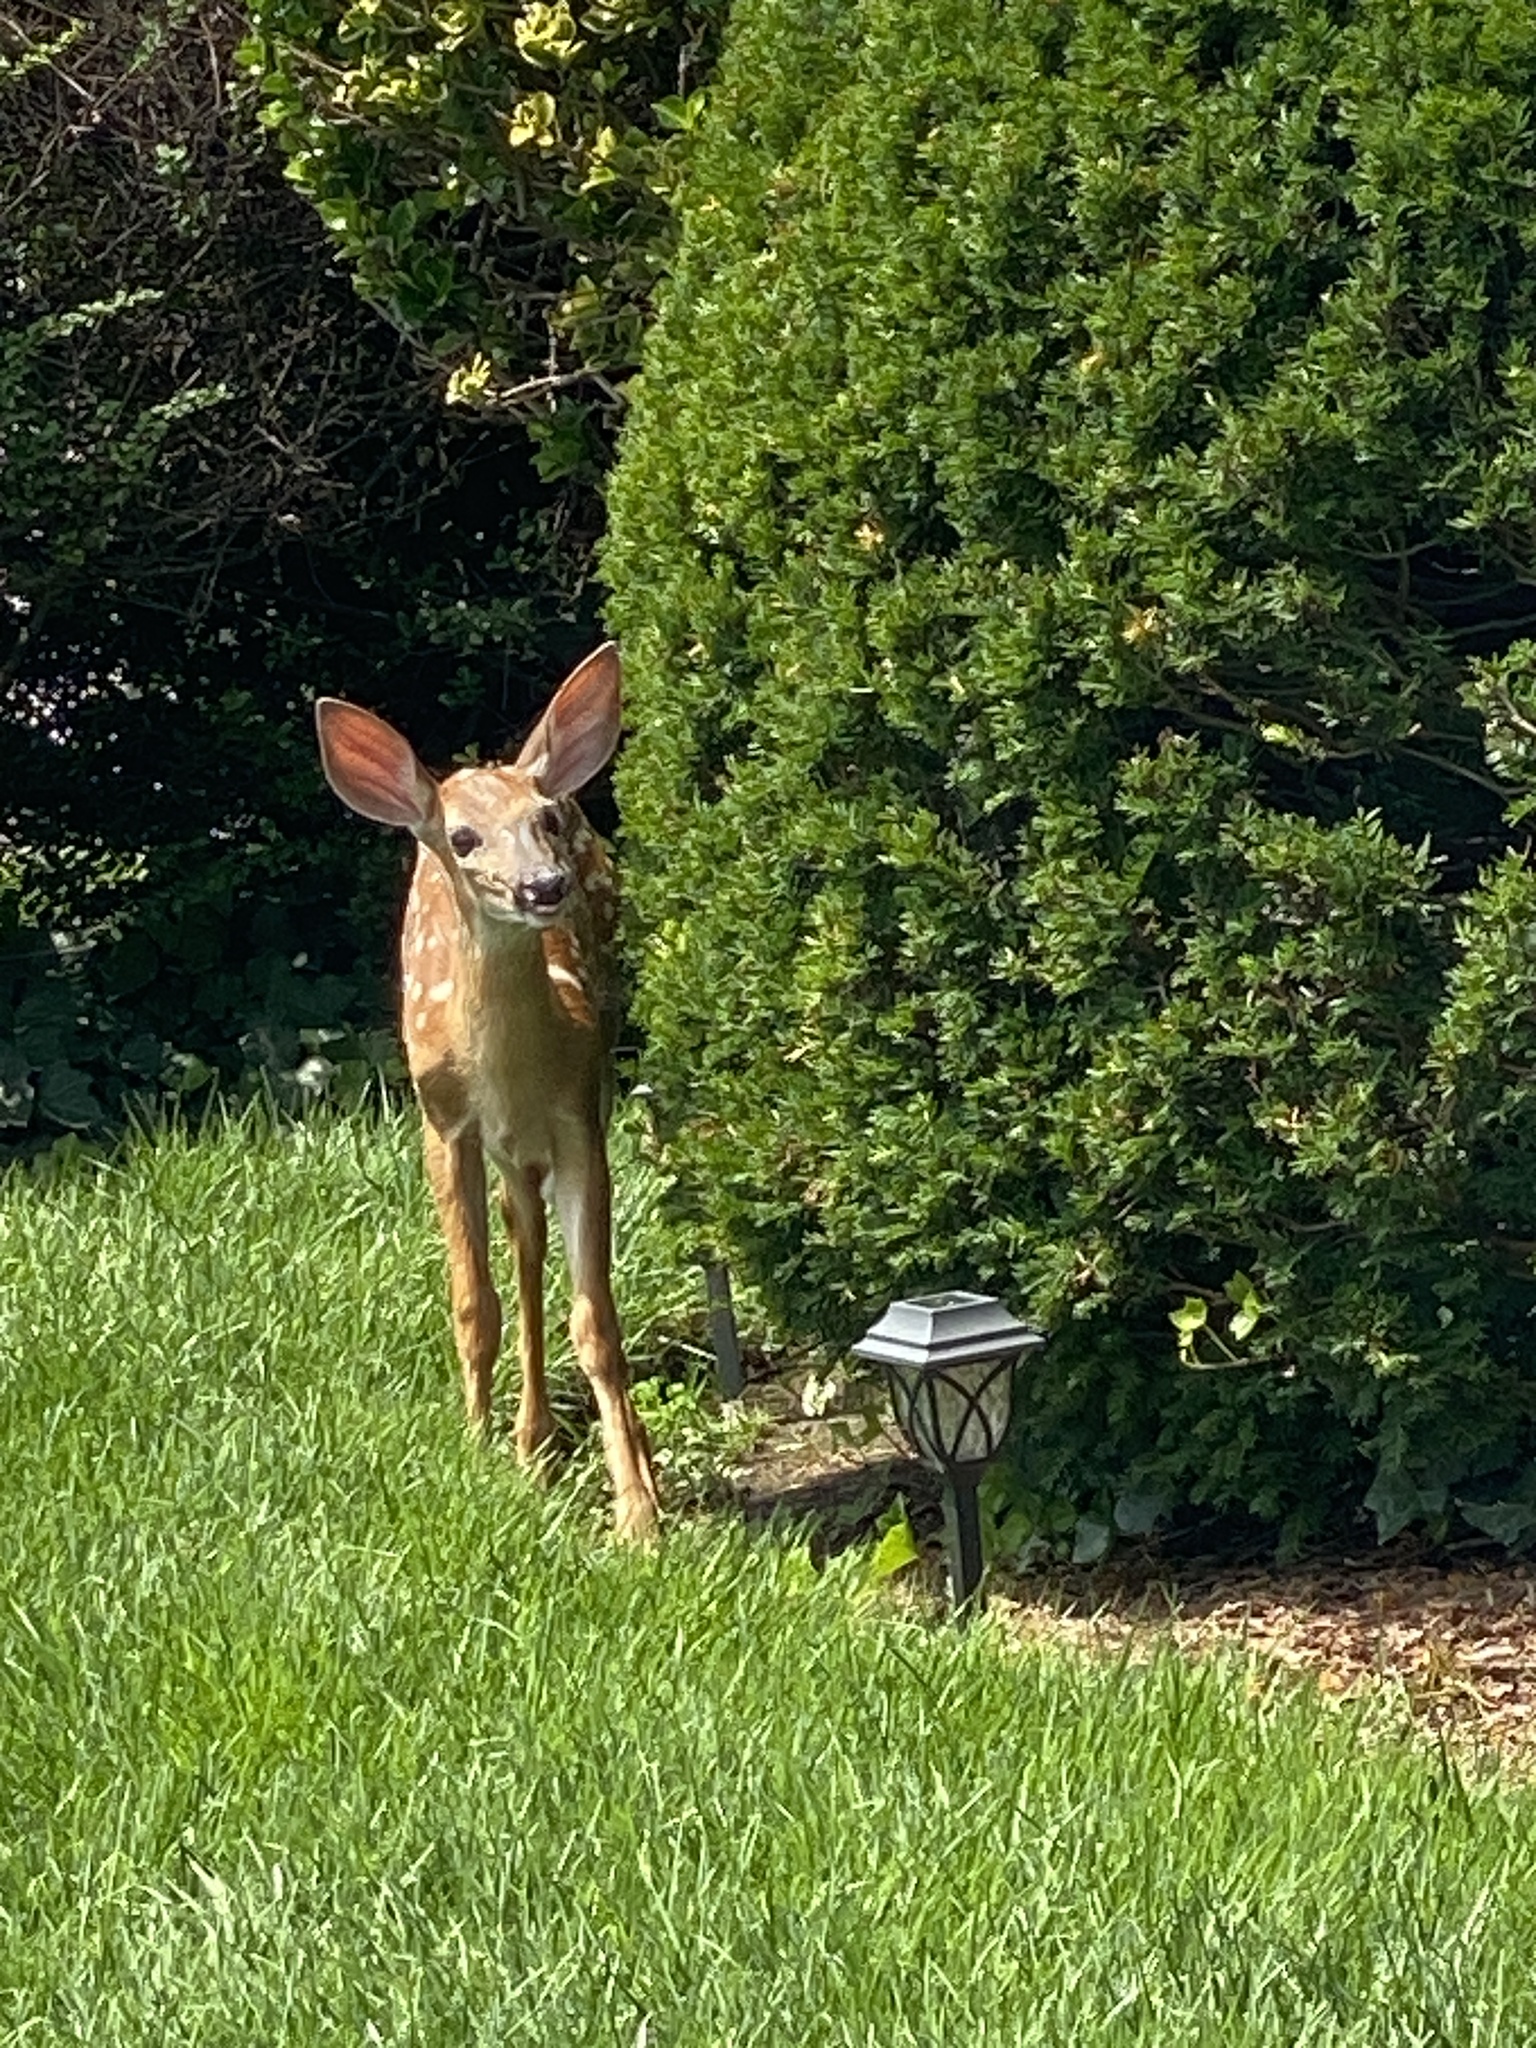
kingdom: Animalia
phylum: Chordata
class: Mammalia
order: Artiodactyla
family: Cervidae
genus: Odocoileus
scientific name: Odocoileus virginianus
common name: White-tailed deer
